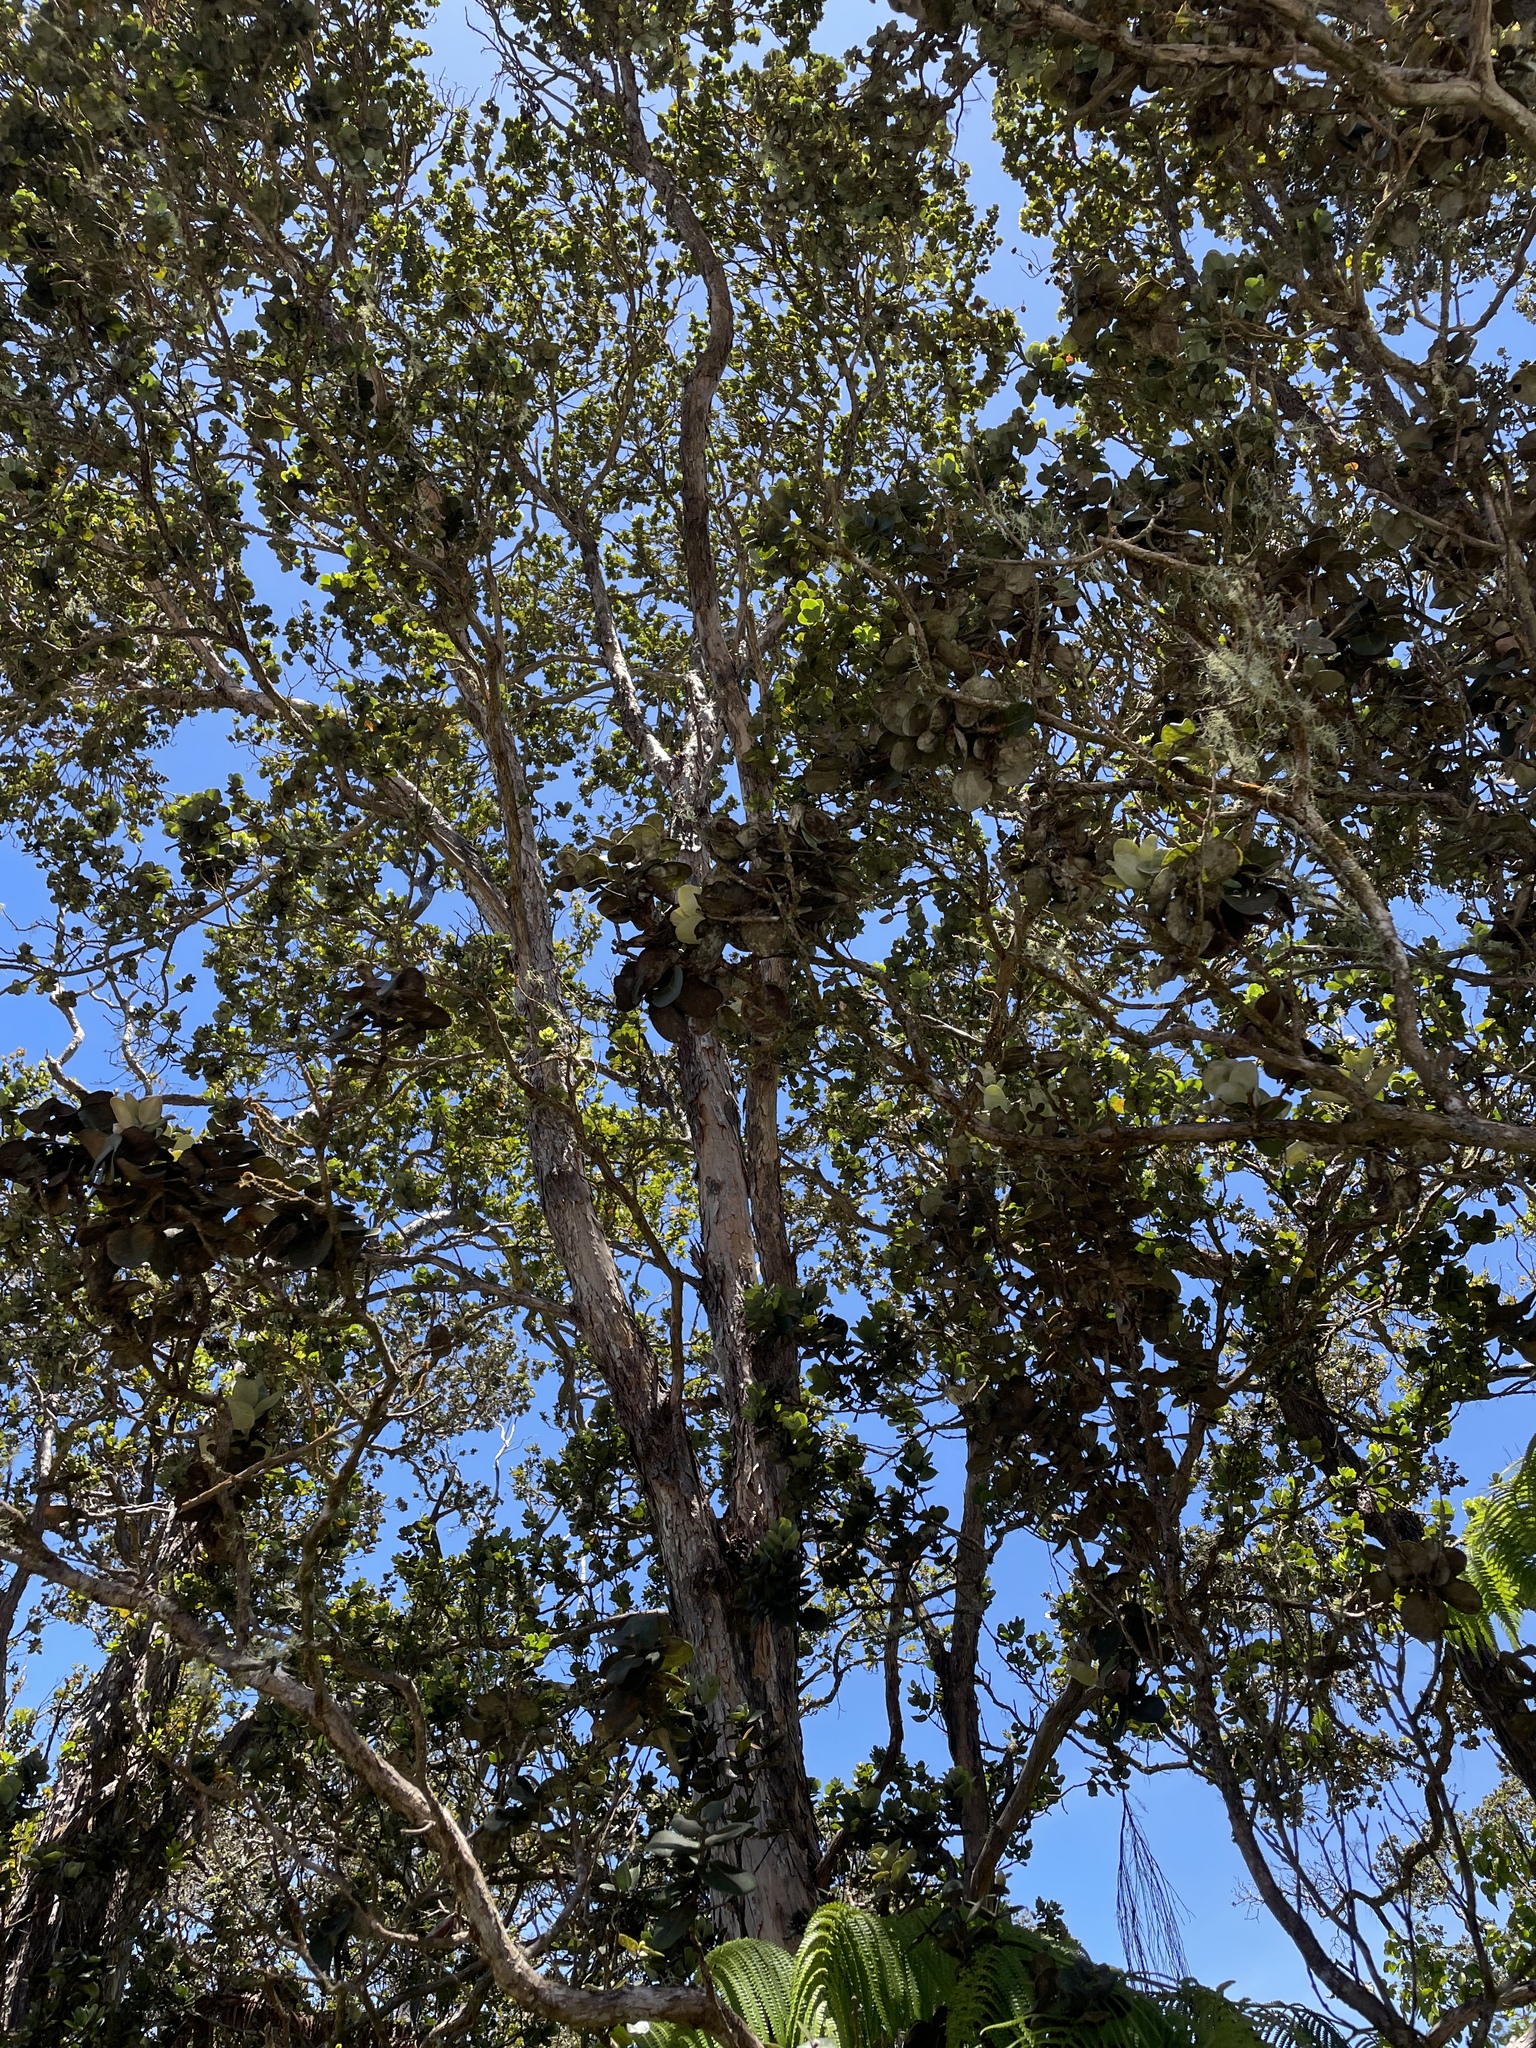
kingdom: Plantae
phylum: Tracheophyta
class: Magnoliopsida
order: Myrtales
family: Myrtaceae
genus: Metrosideros
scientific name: Metrosideros polymorpha
